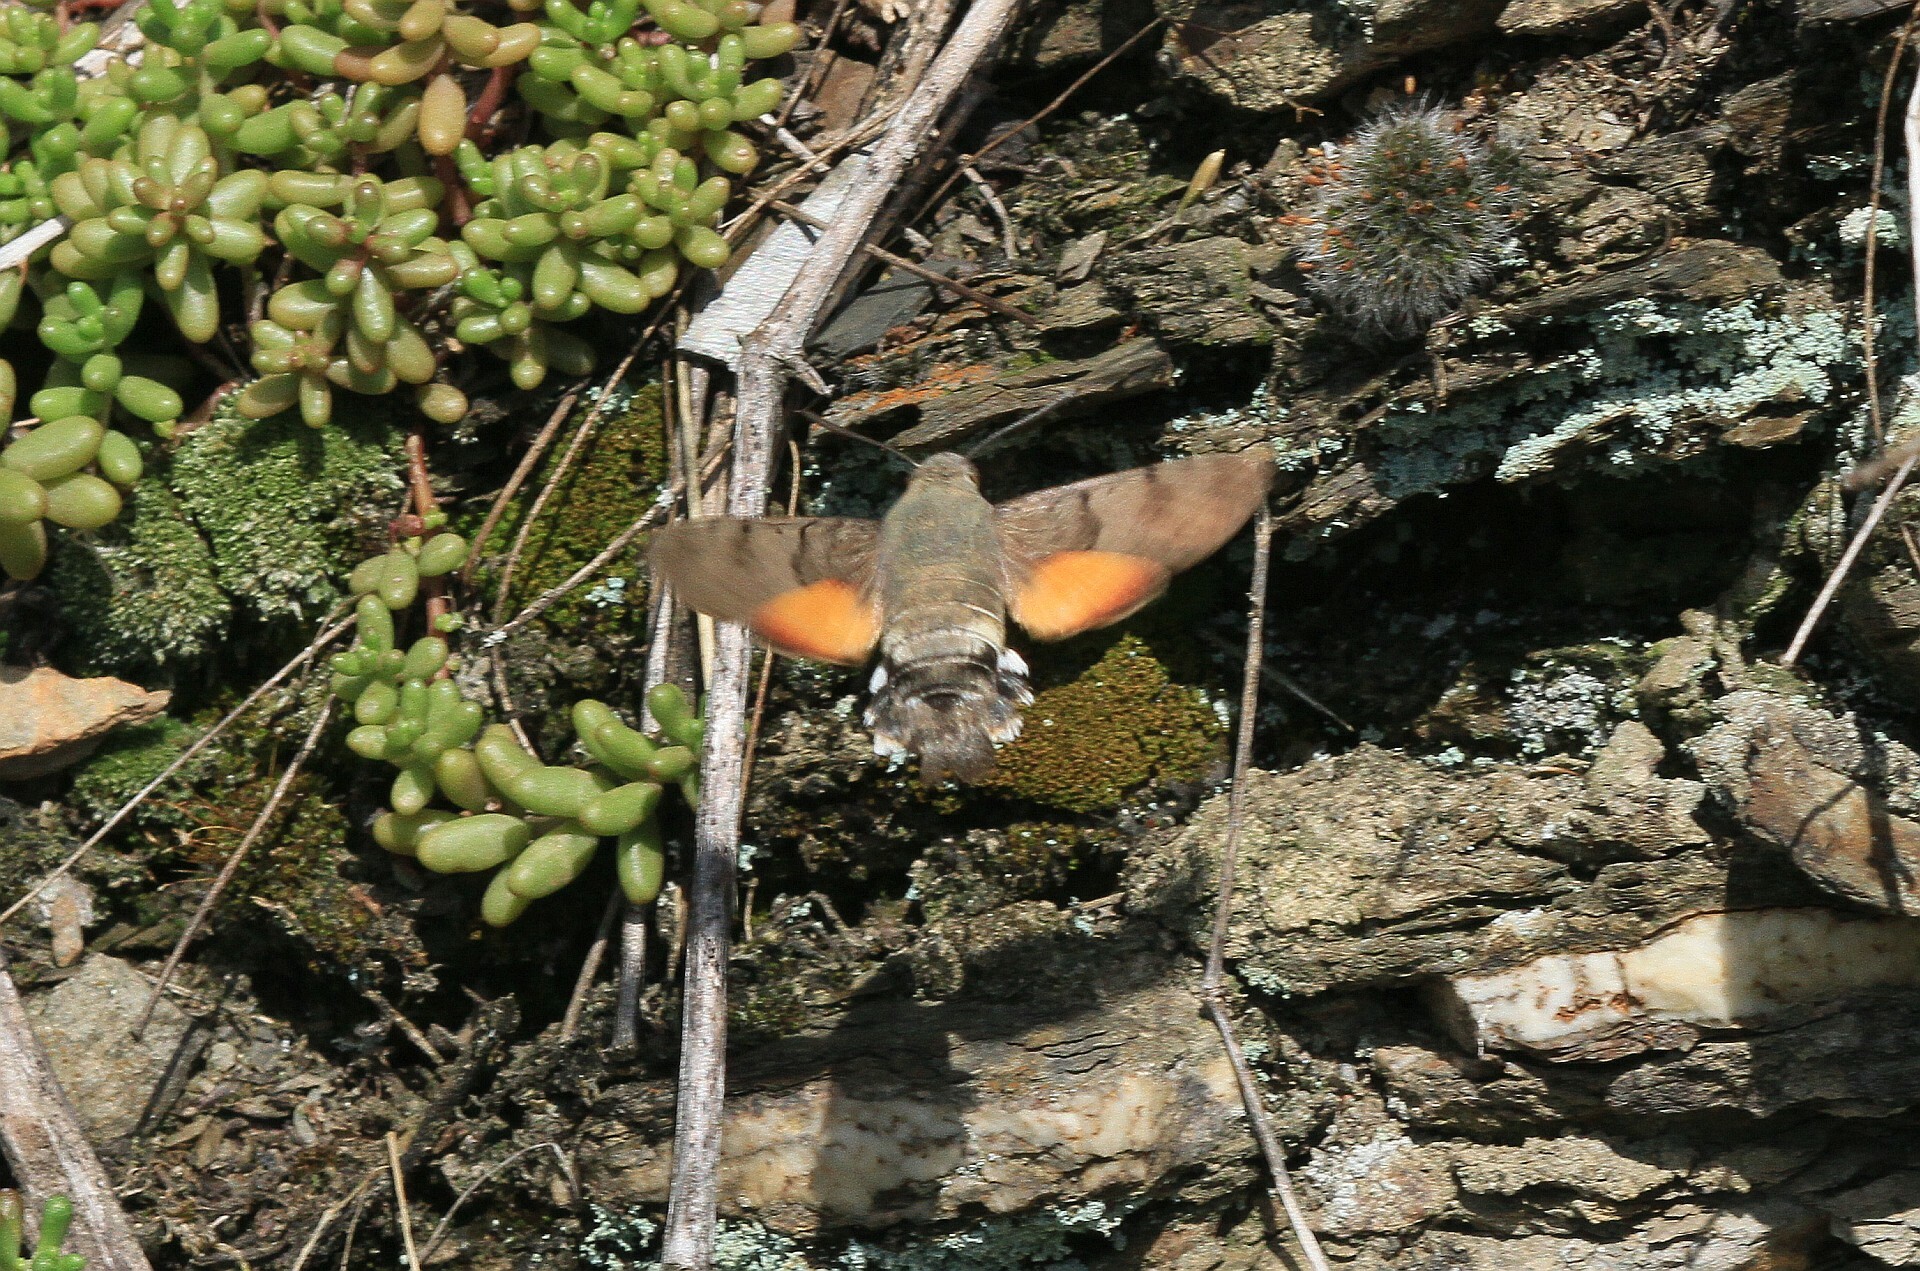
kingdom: Animalia
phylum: Arthropoda
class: Insecta
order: Lepidoptera
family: Sphingidae
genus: Macroglossum
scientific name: Macroglossum stellatarum
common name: Humming-bird hawk-moth
